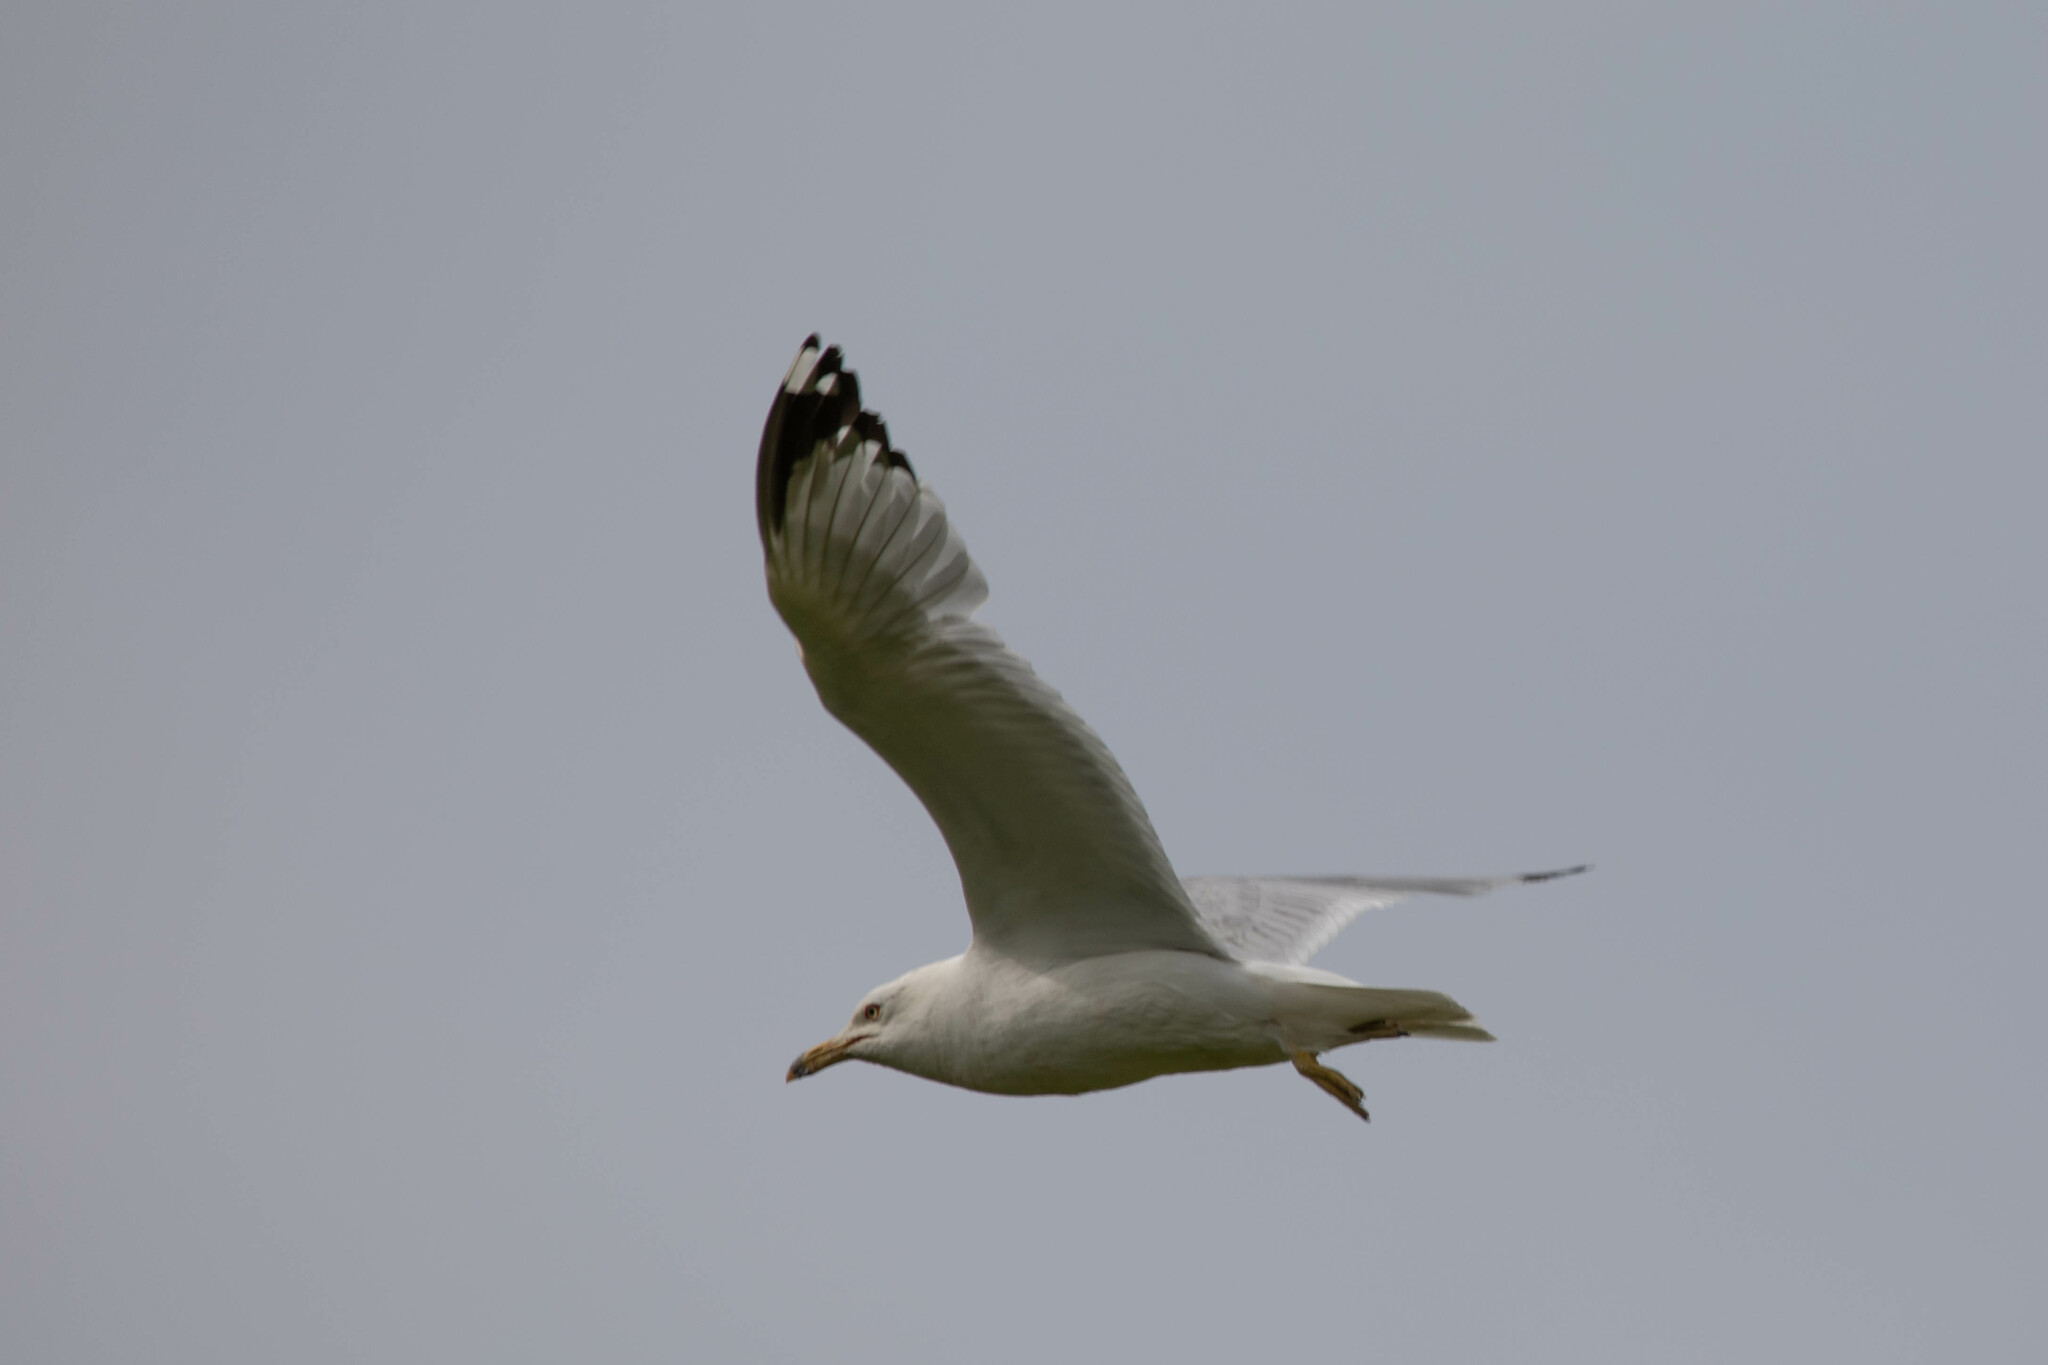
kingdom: Animalia
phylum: Chordata
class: Aves
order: Charadriiformes
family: Laridae
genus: Larus
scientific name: Larus delawarensis
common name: Ring-billed gull
